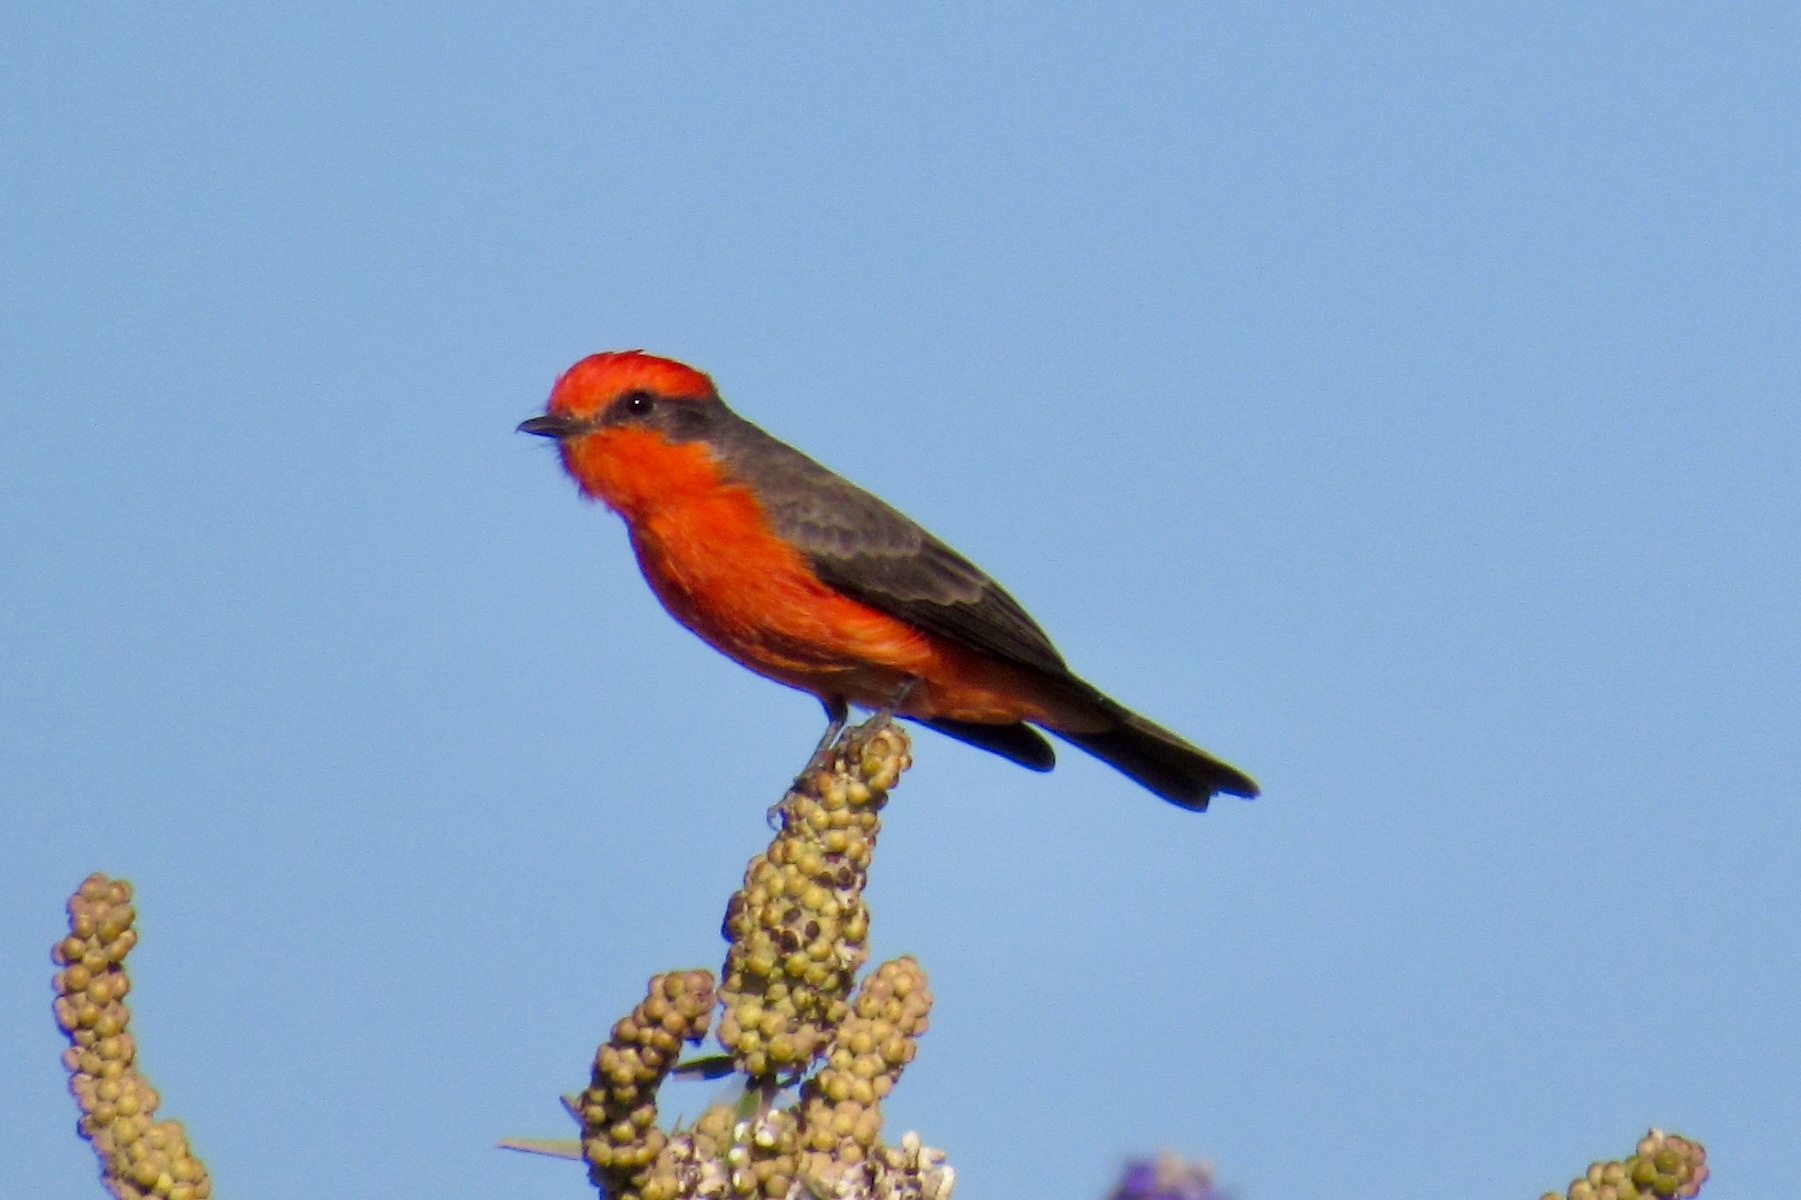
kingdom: Animalia
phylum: Chordata
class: Aves
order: Passeriformes
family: Tyrannidae
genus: Pyrocephalus
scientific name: Pyrocephalus rubinus
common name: Vermilion flycatcher
